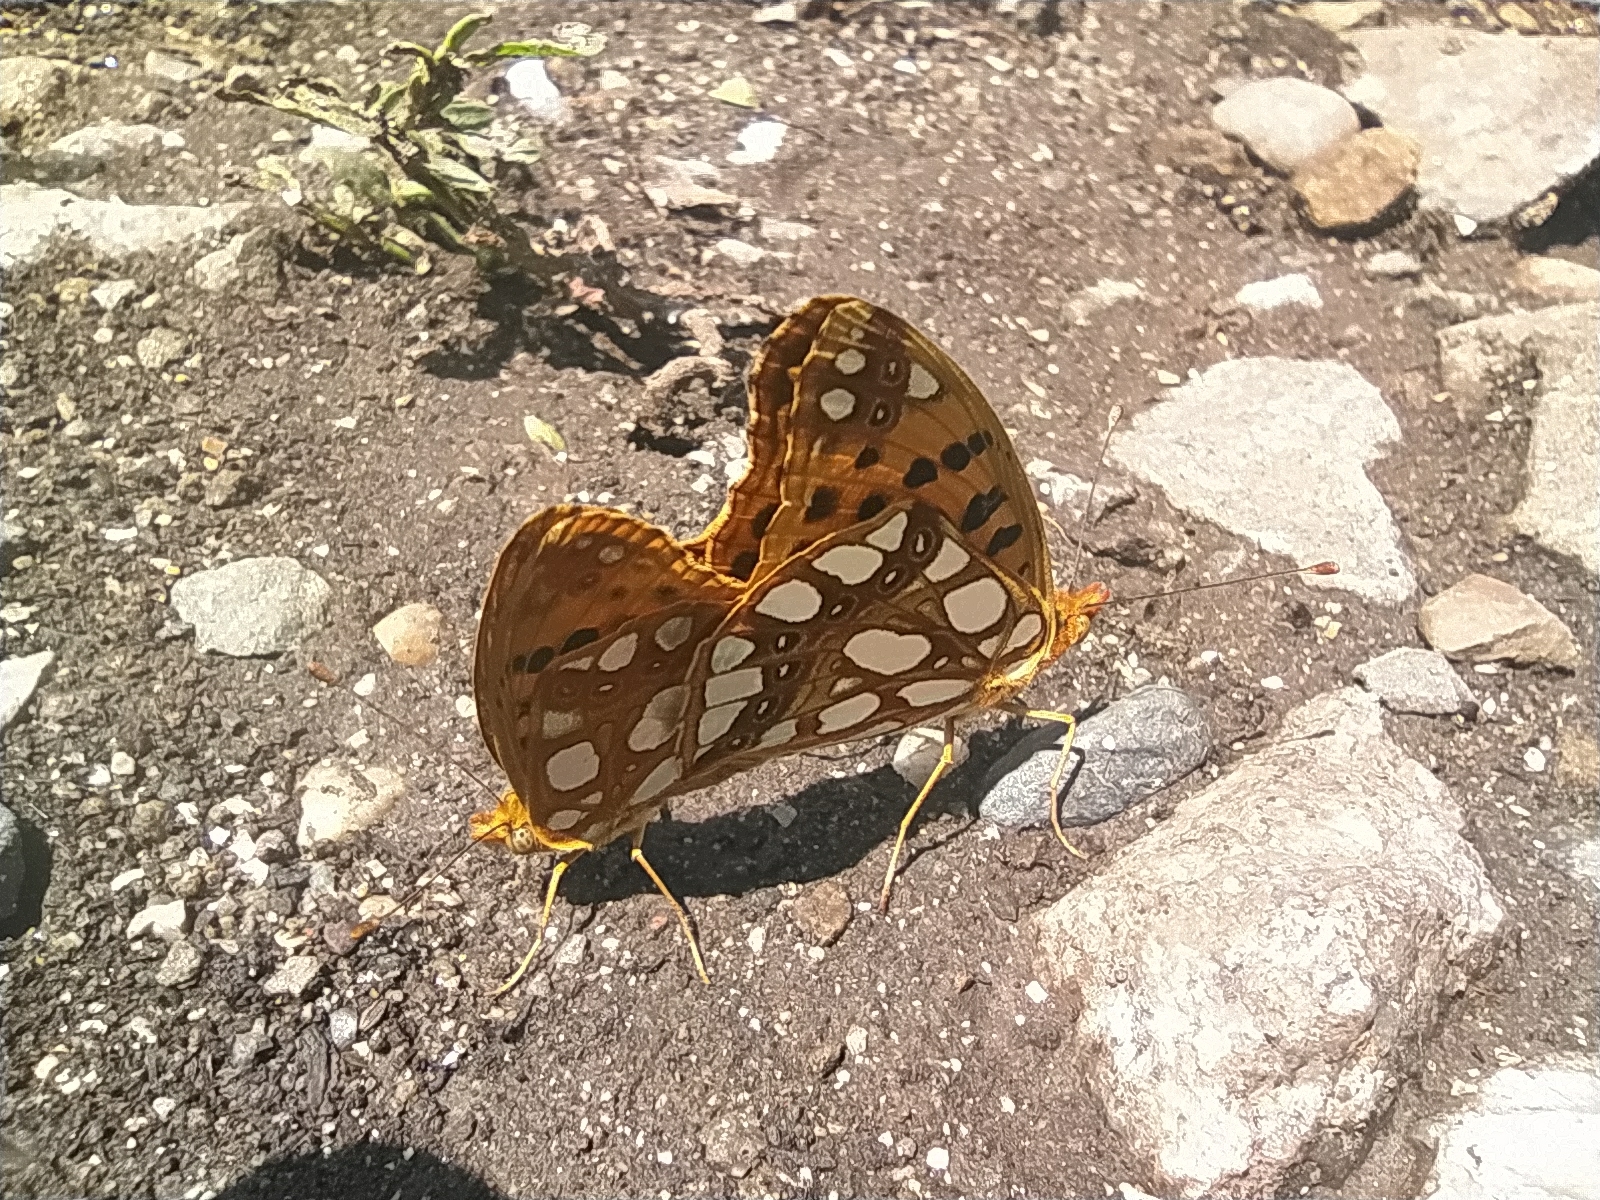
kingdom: Animalia
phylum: Arthropoda
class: Insecta
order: Lepidoptera
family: Nymphalidae
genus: Issoria
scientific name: Issoria lathonia
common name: Queen of spain fritillary
